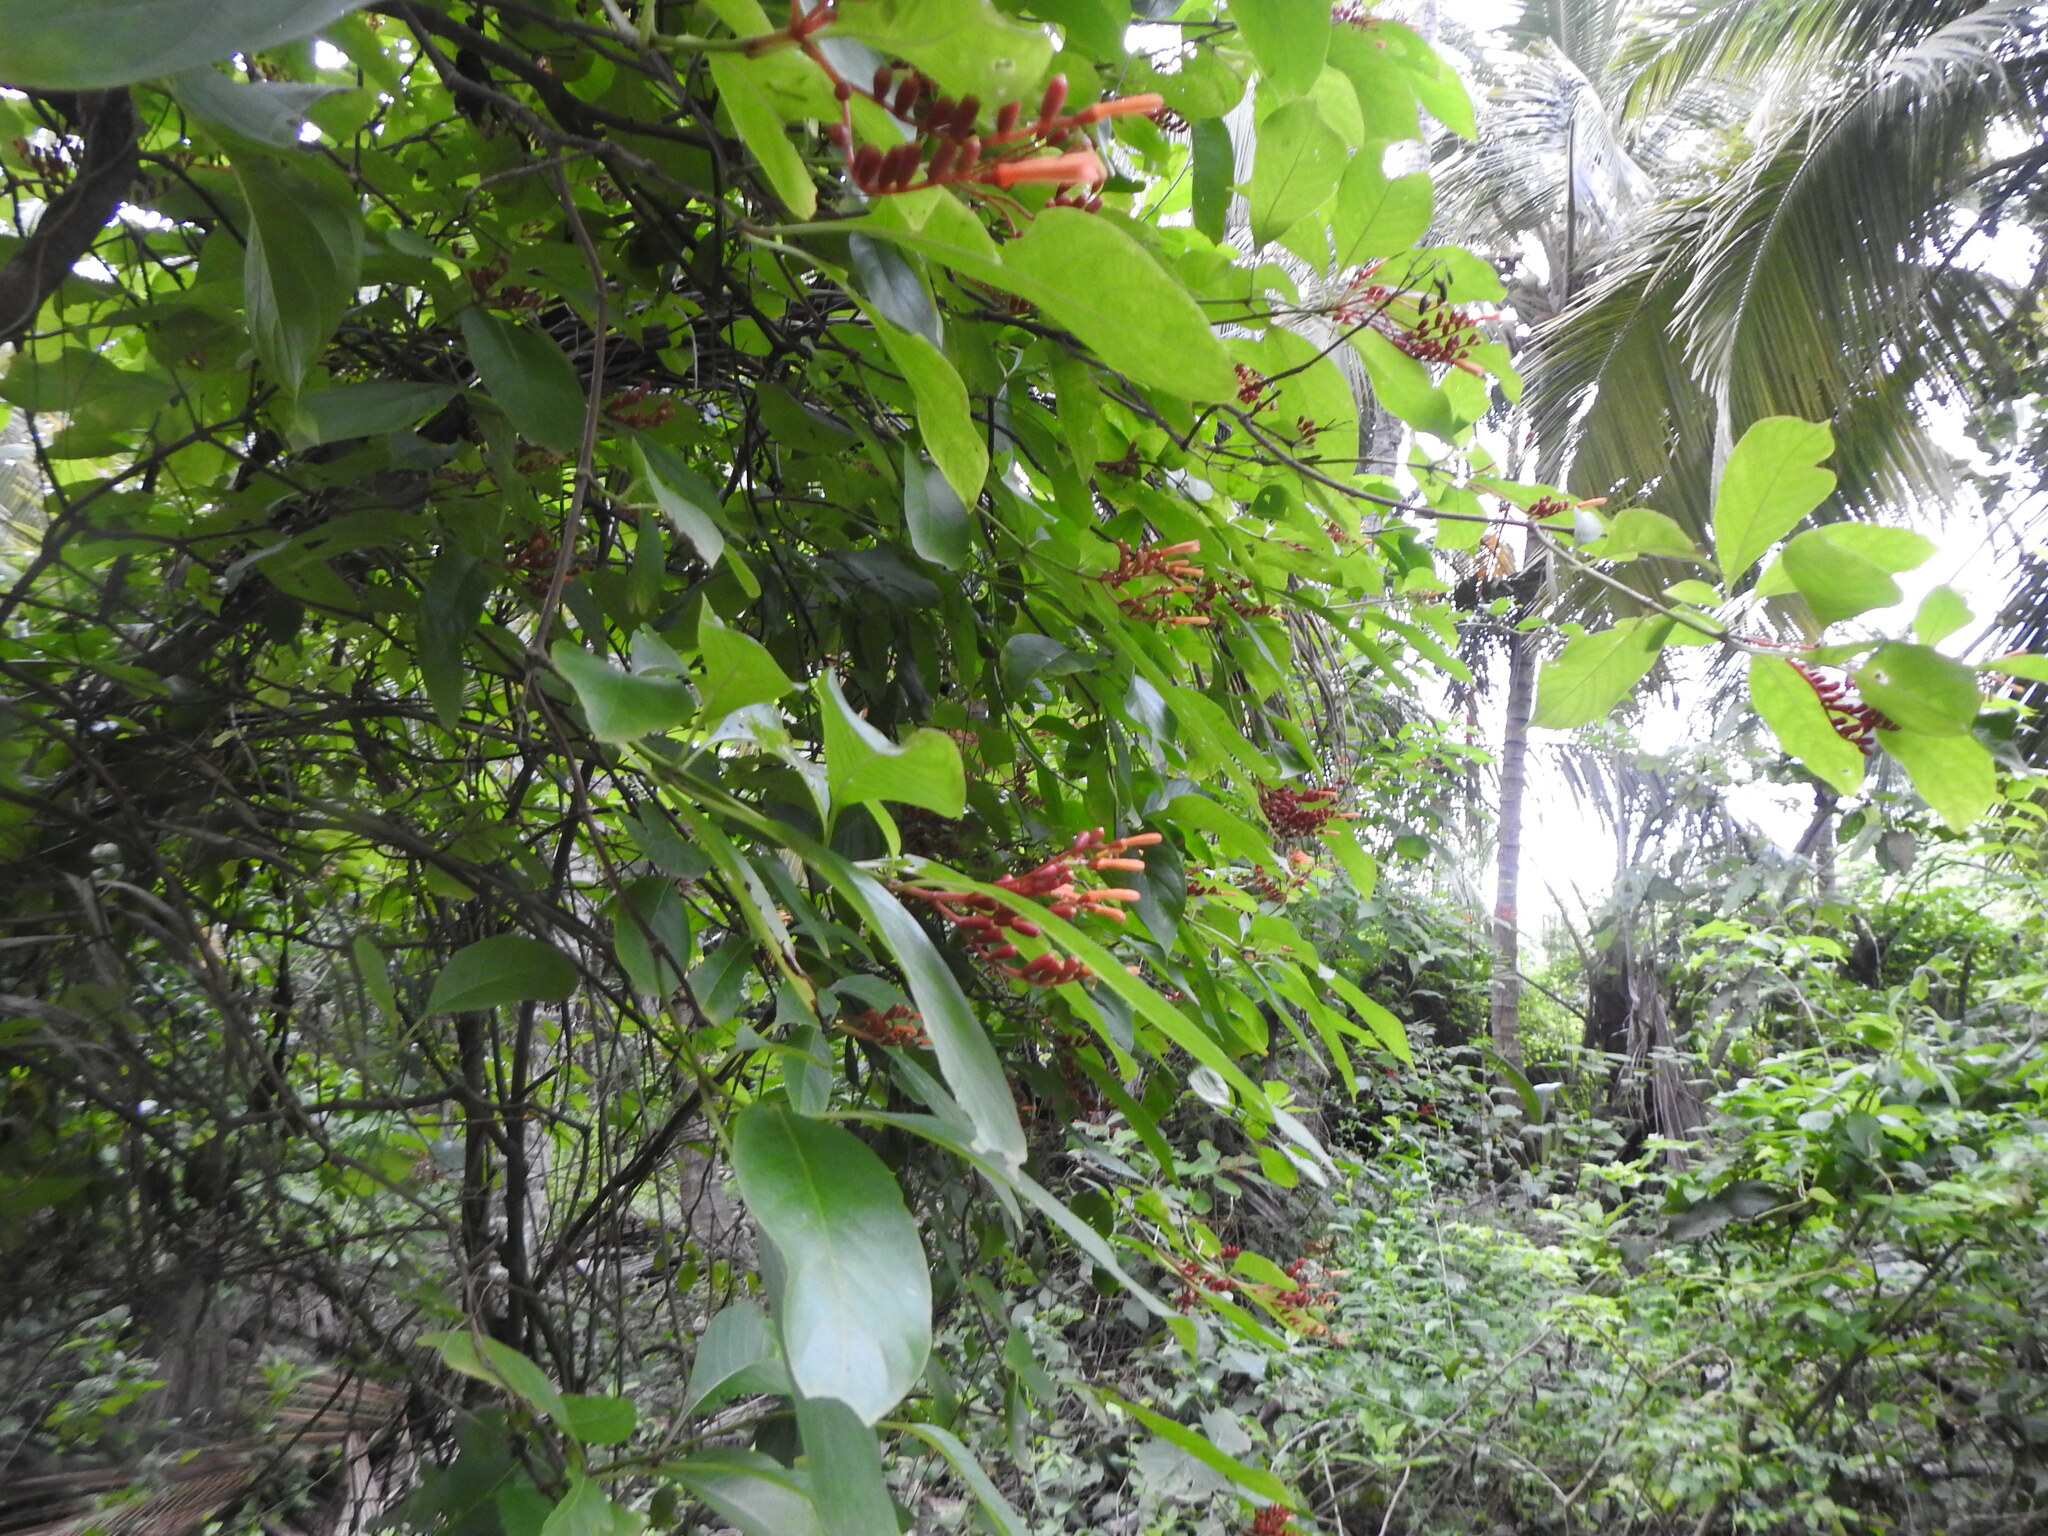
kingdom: Plantae
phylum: Tracheophyta
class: Magnoliopsida
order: Gentianales
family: Rubiaceae
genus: Hamelia
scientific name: Hamelia patens
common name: Redhead
